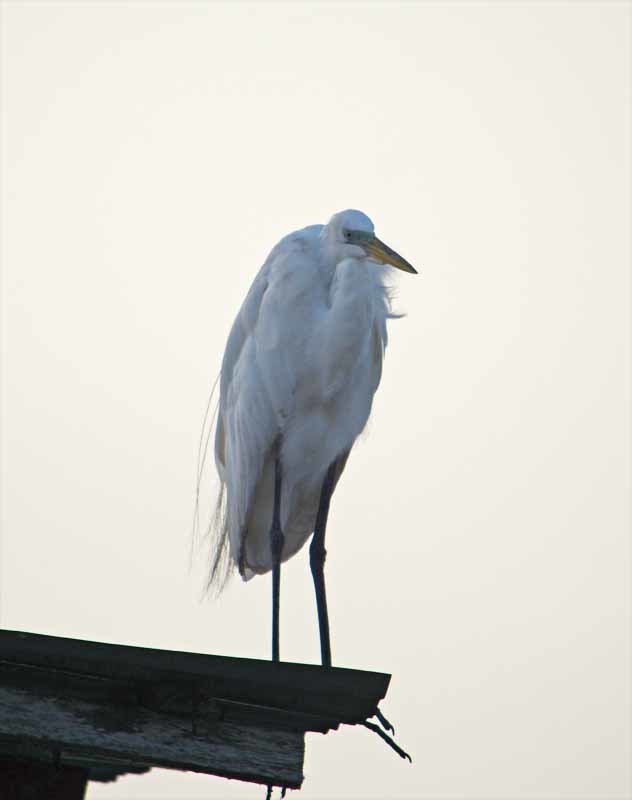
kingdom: Animalia
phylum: Chordata
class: Aves
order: Pelecaniformes
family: Ardeidae
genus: Ardea
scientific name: Ardea alba
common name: Great egret
